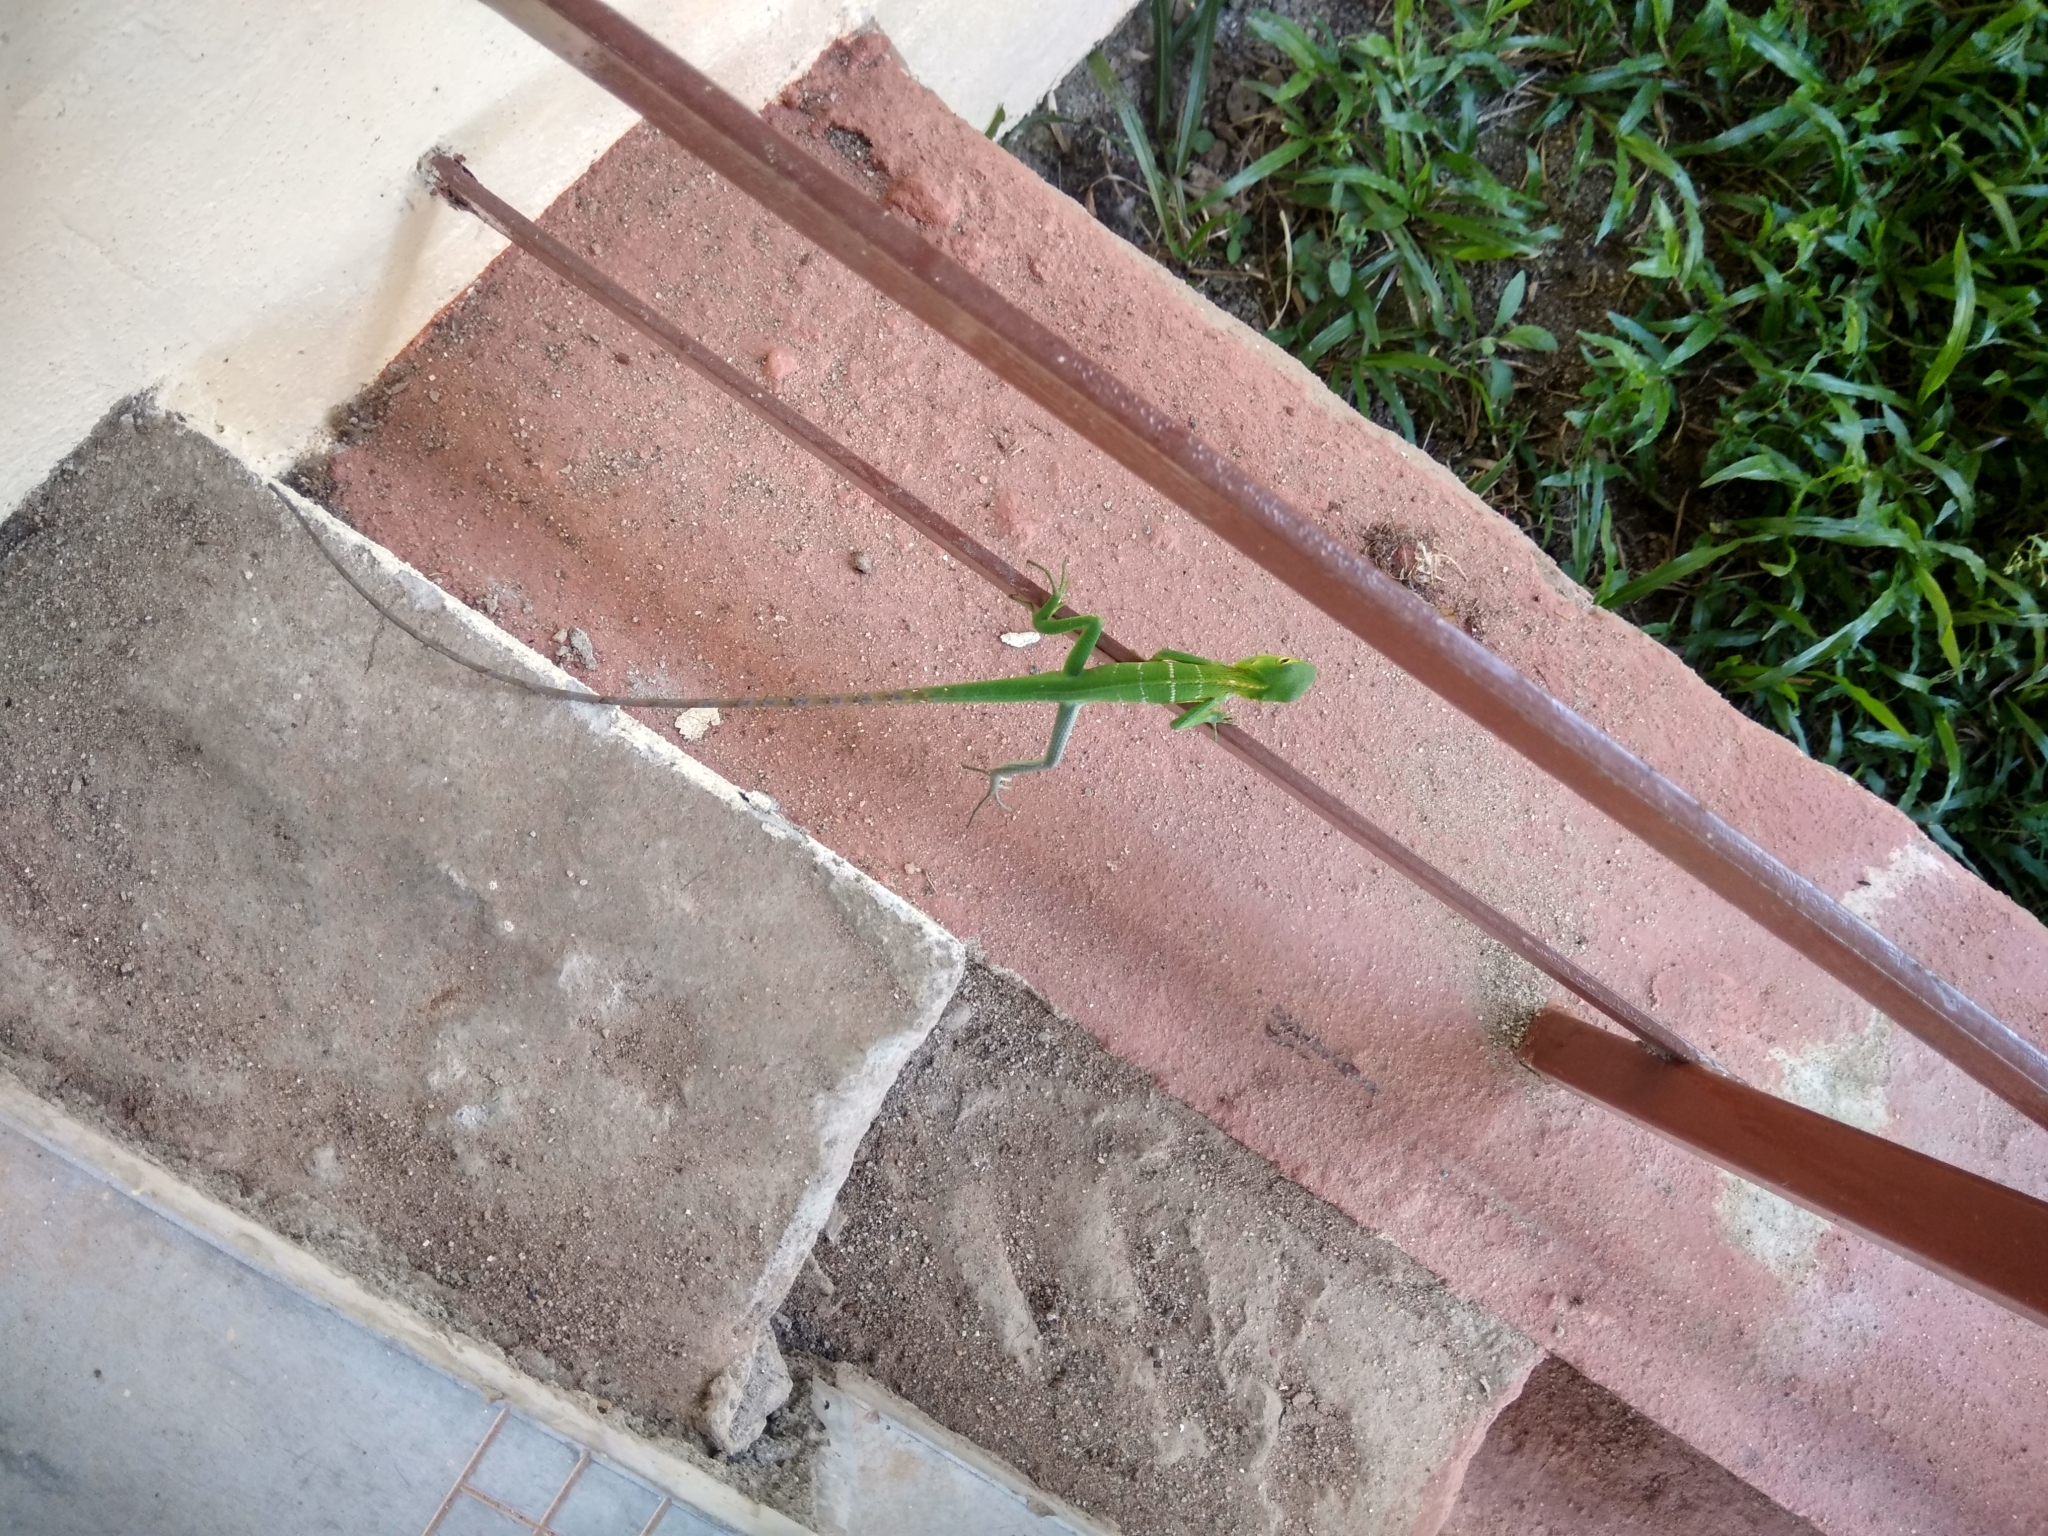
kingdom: Animalia
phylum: Chordata
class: Squamata
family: Agamidae
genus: Calotes
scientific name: Calotes calotes
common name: Common green forest lizard
